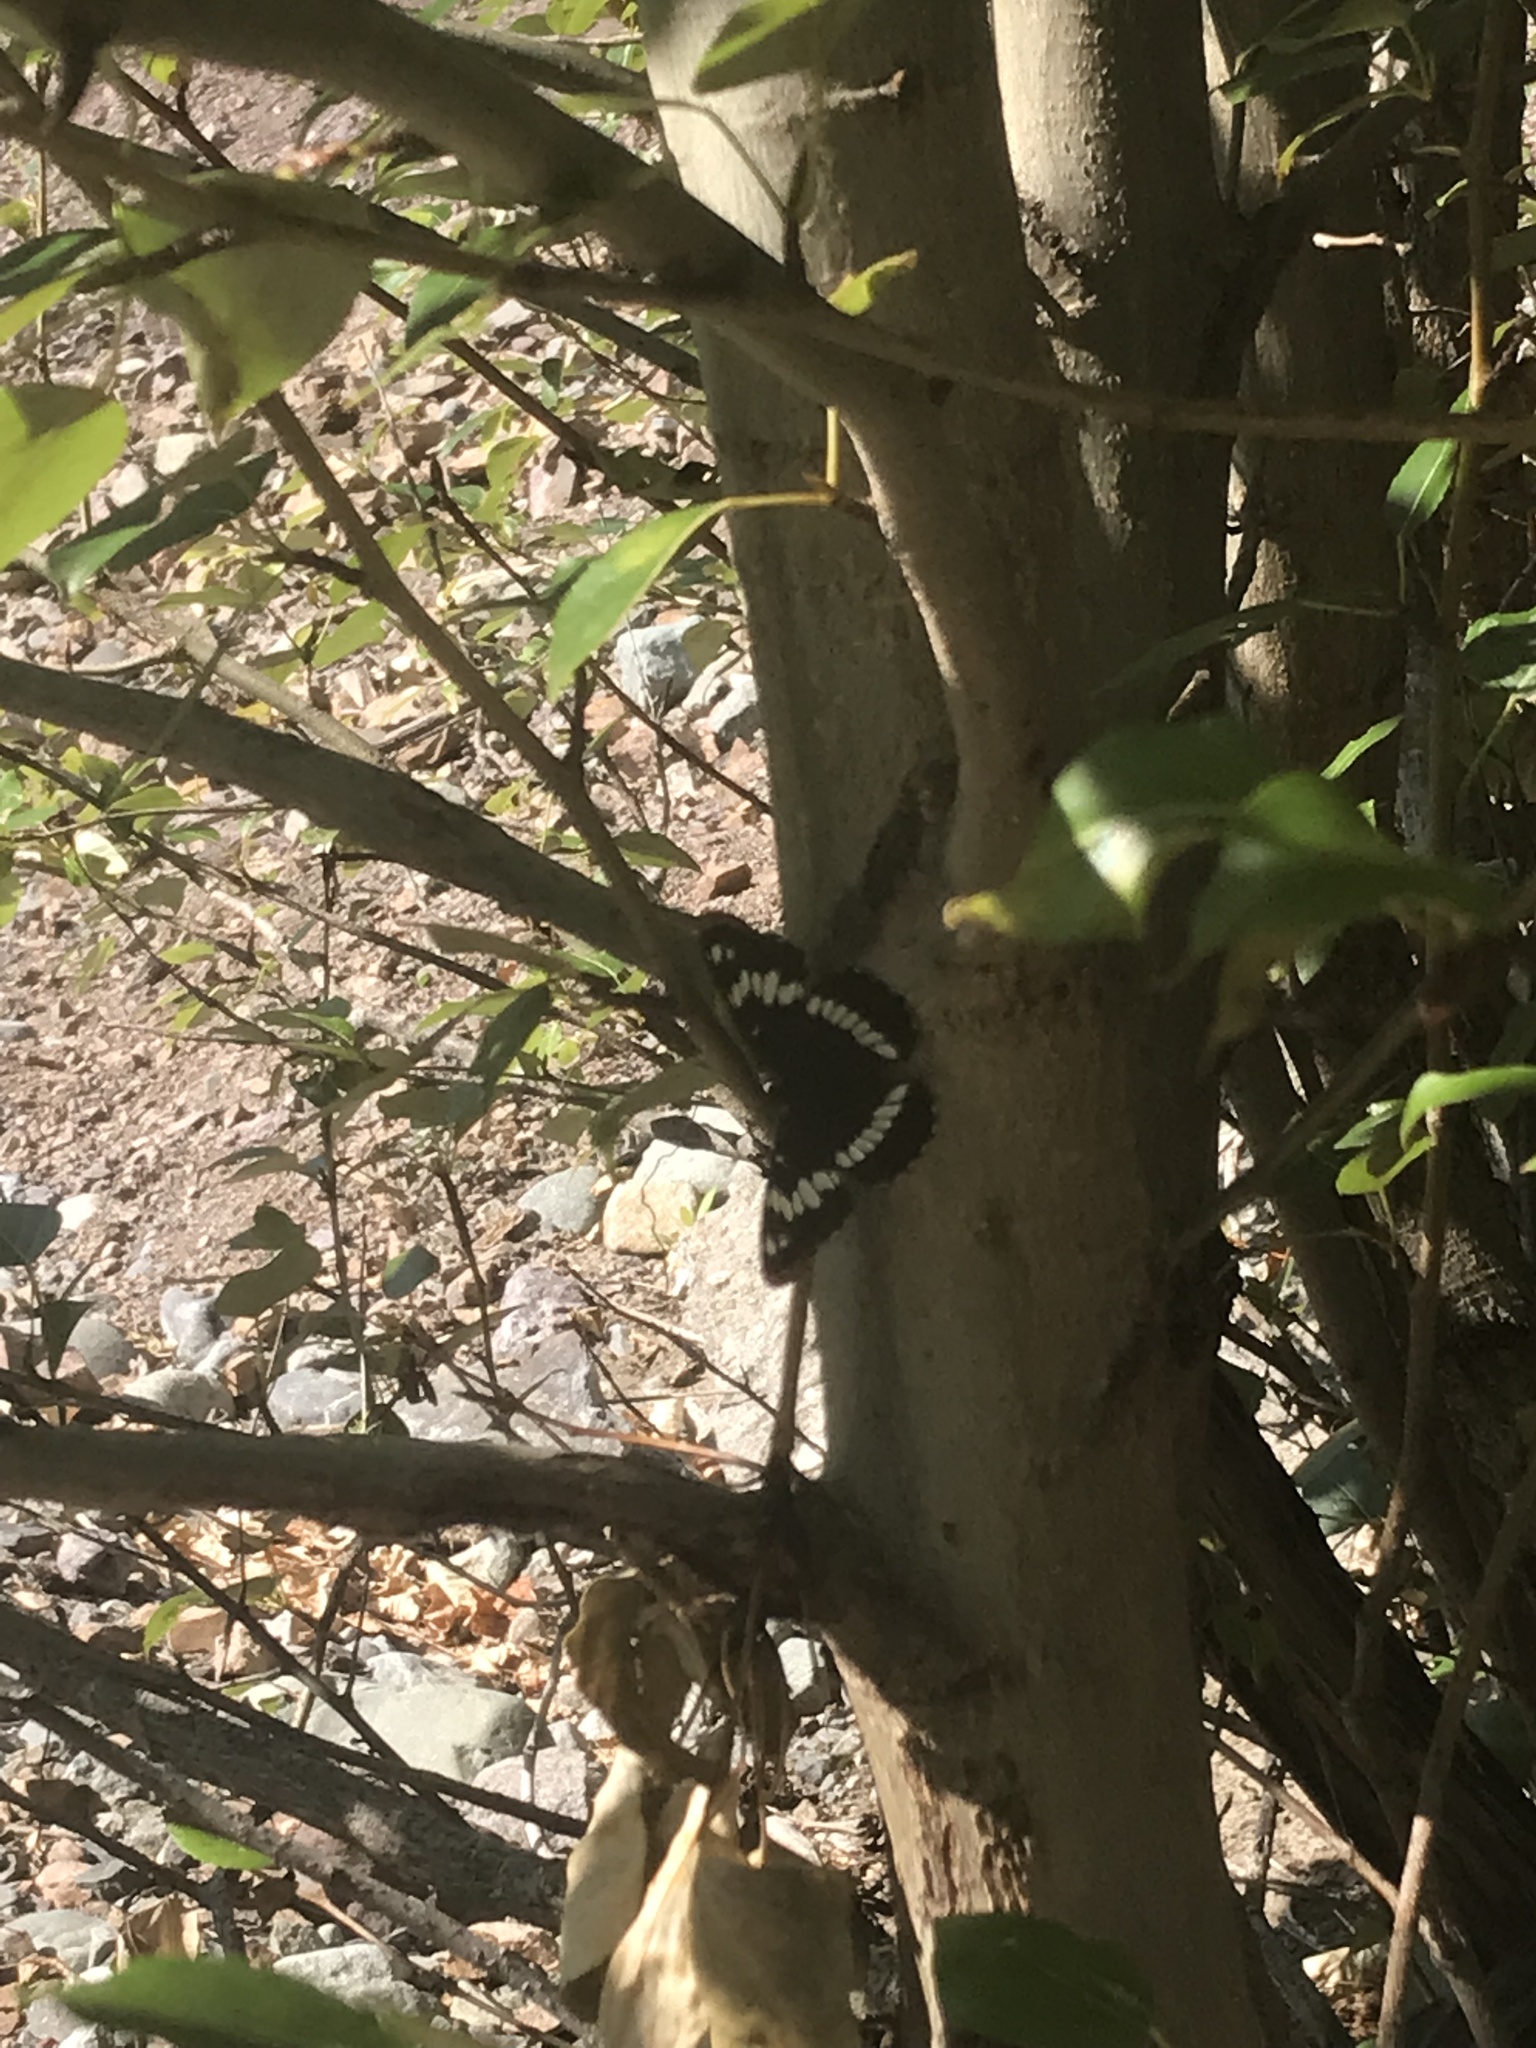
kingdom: Animalia
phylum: Arthropoda
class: Insecta
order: Lepidoptera
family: Nymphalidae
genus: Limenitis
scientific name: Limenitis lorquini
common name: Lorquin's admiral
